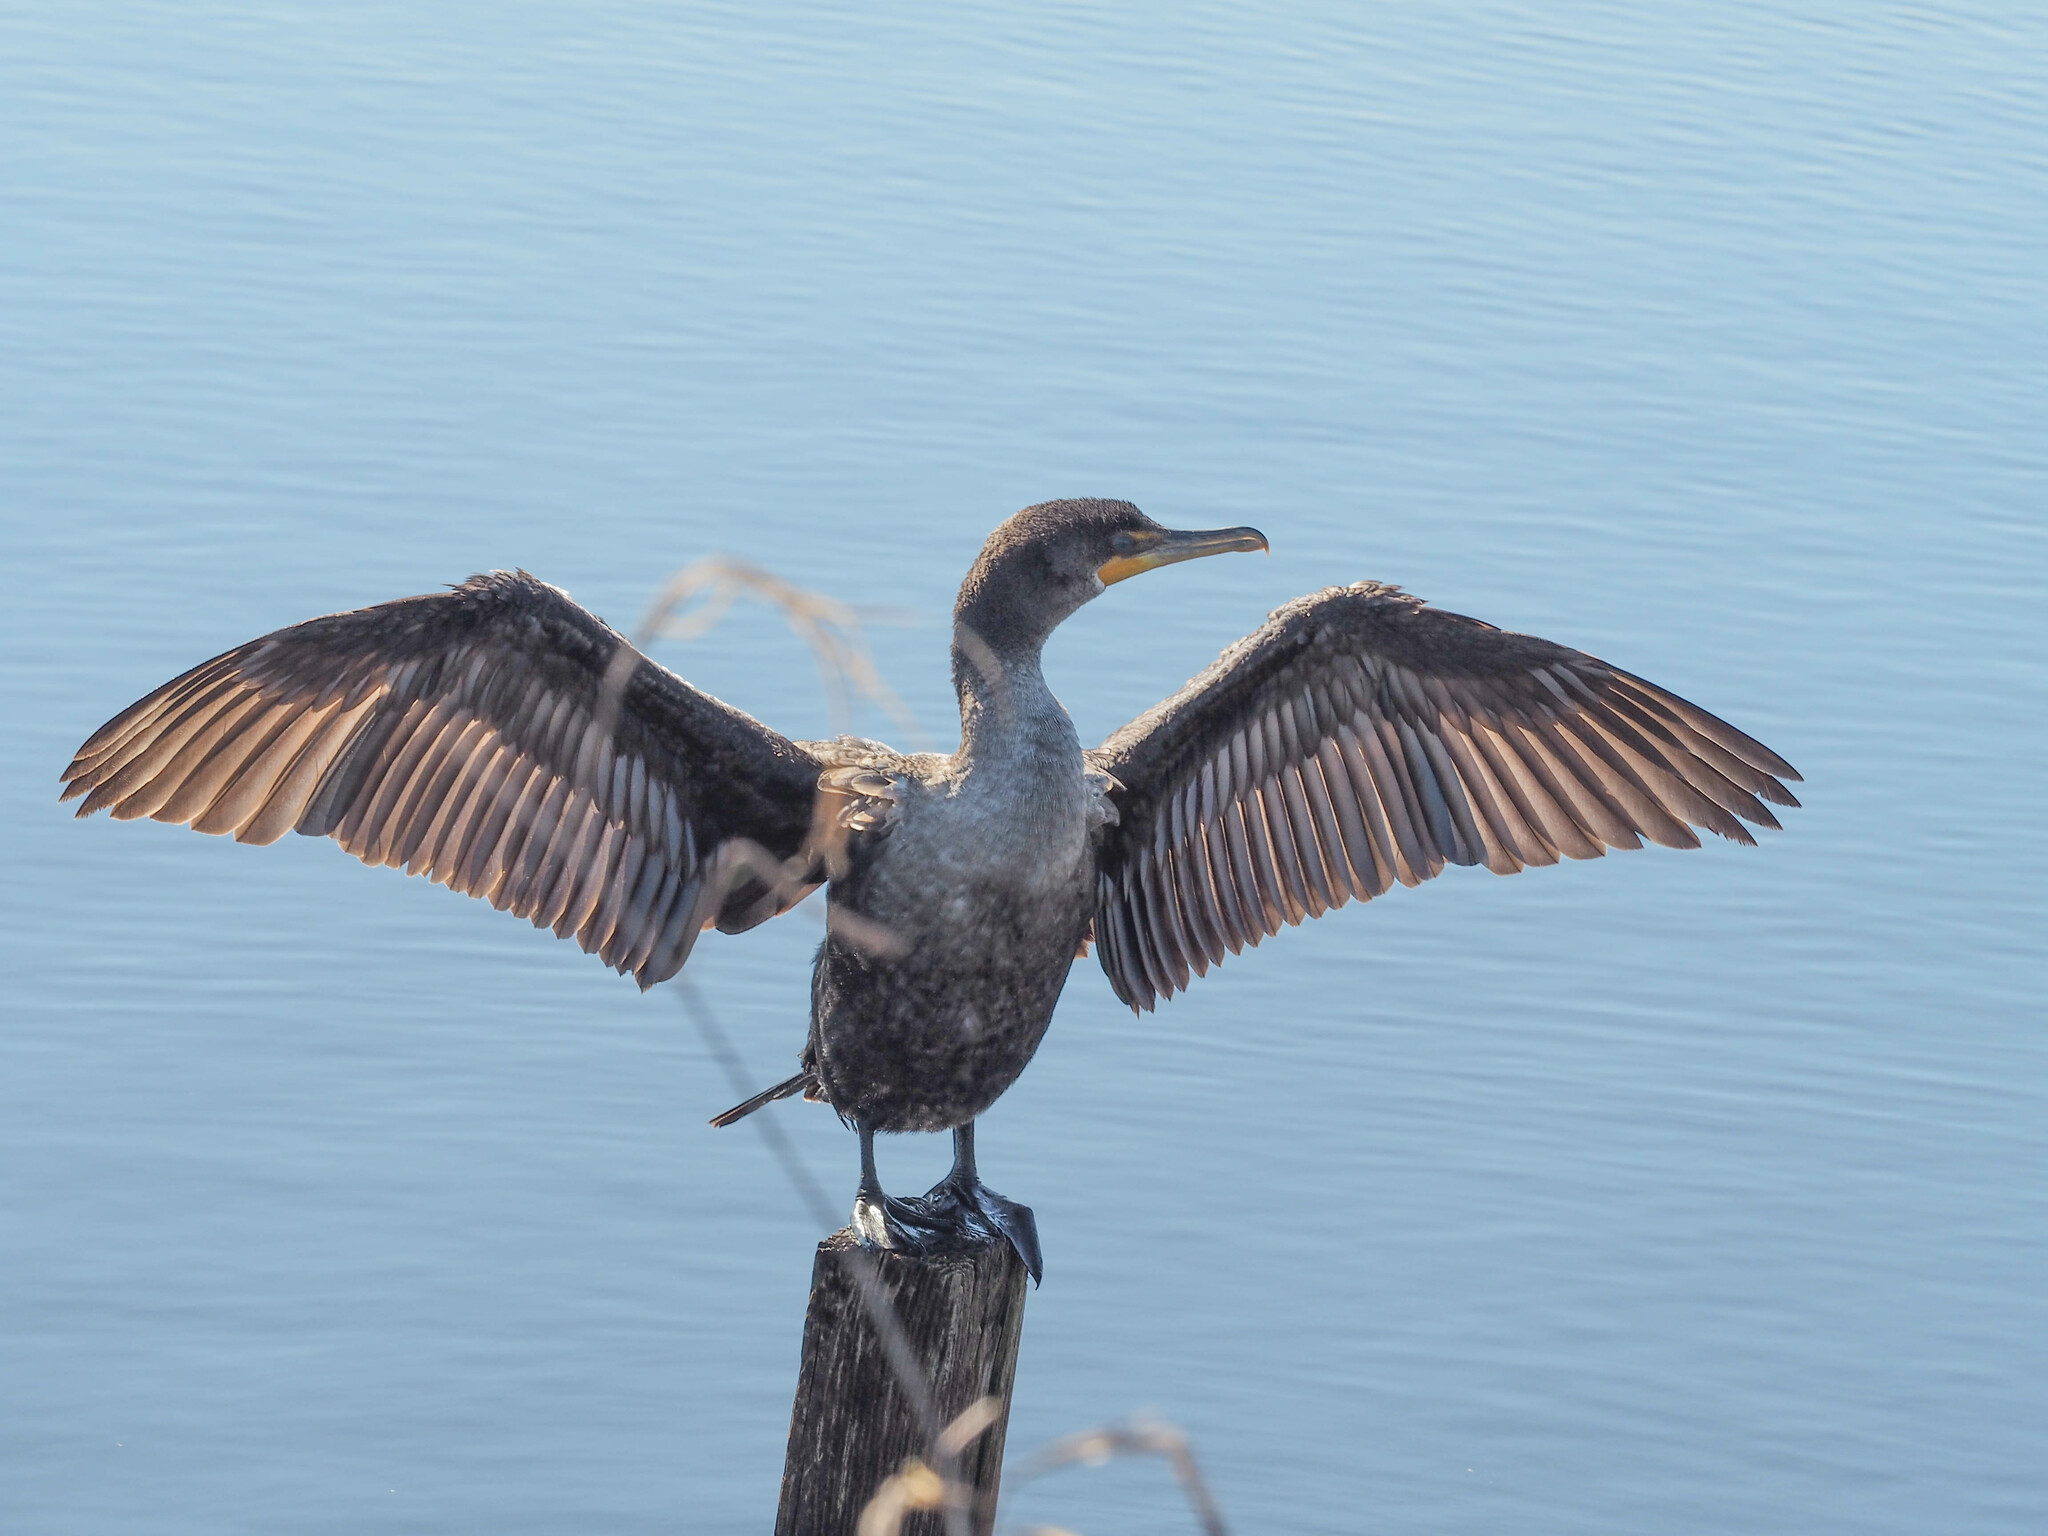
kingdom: Animalia
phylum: Chordata
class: Aves
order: Suliformes
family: Phalacrocoracidae
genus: Phalacrocorax
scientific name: Phalacrocorax auritus
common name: Double-crested cormorant
